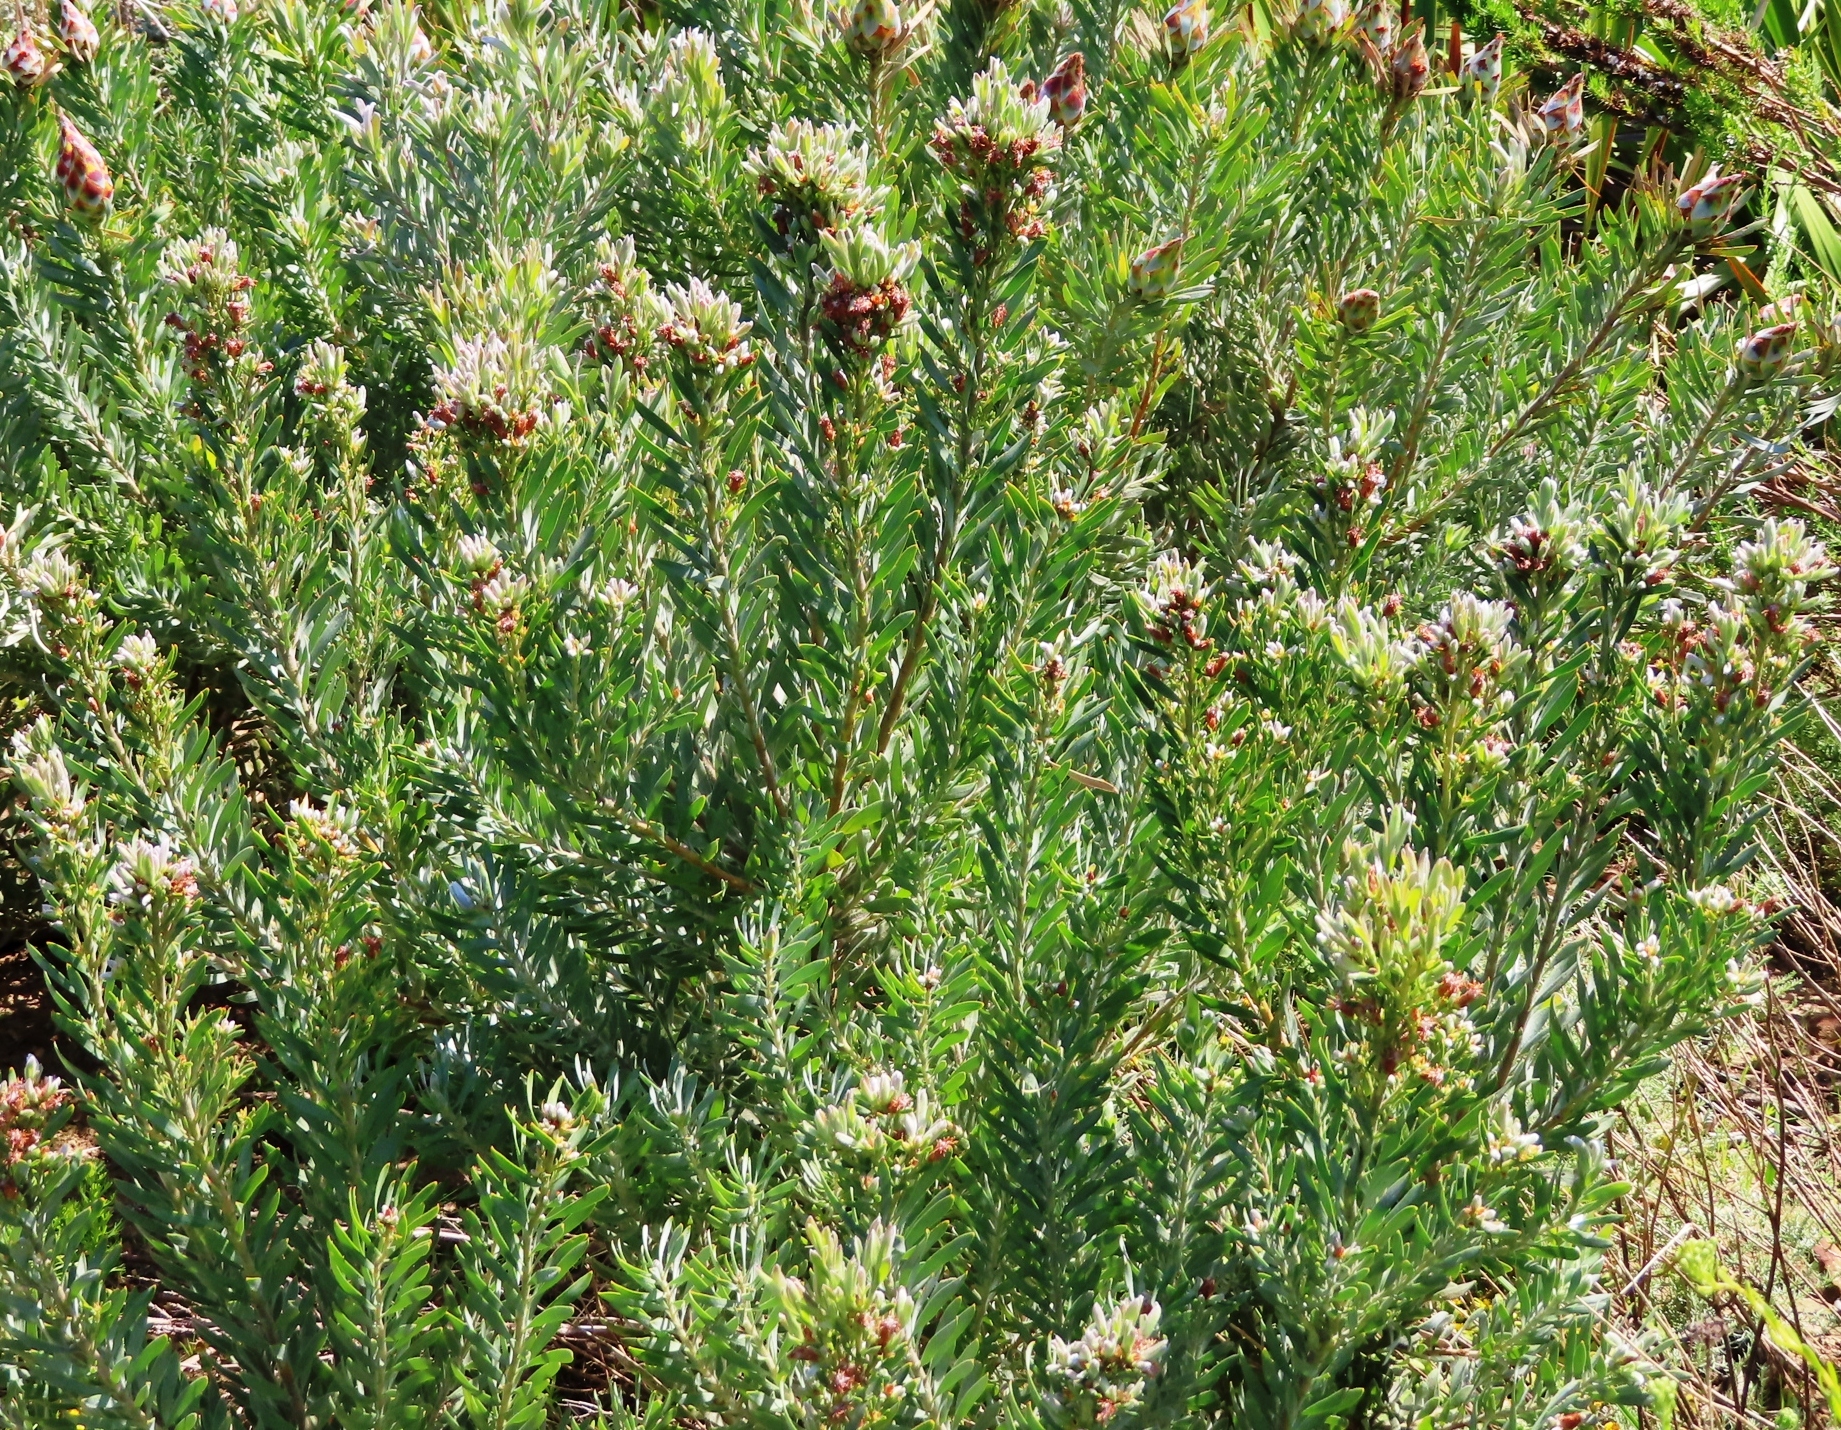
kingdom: Plantae
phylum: Tracheophyta
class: Magnoliopsida
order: Proteales
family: Proteaceae
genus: Leucadendron
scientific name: Leucadendron rubrum
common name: Spinning top
